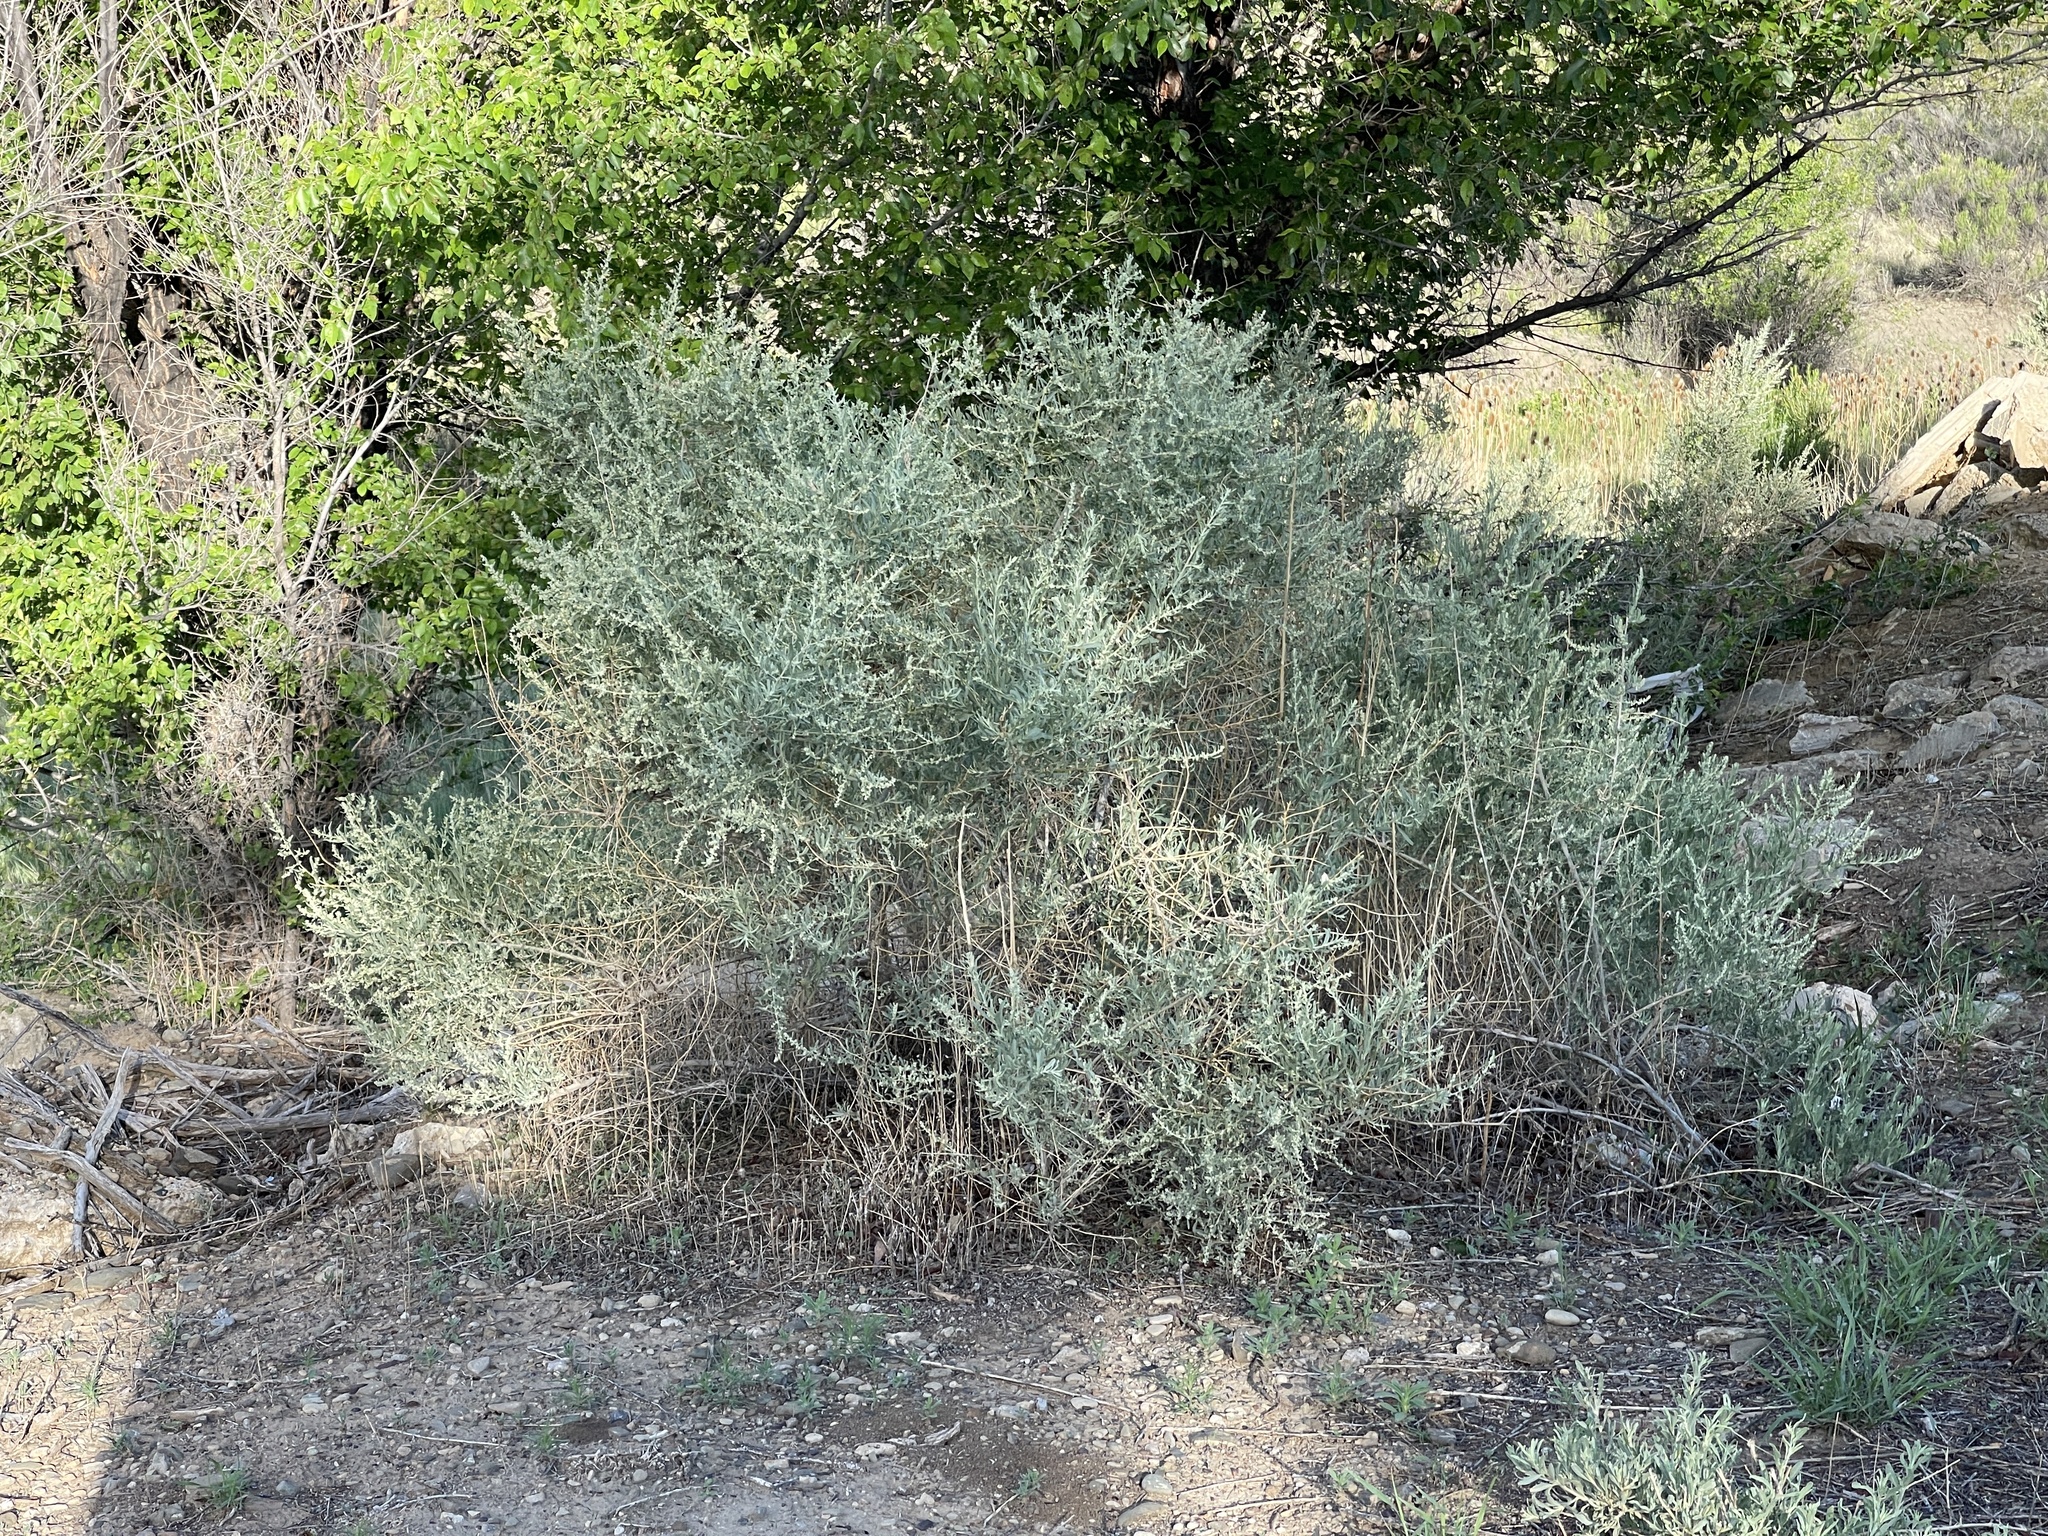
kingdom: Plantae
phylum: Tracheophyta
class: Magnoliopsida
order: Caryophyllales
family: Amaranthaceae
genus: Atriplex
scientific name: Atriplex canescens
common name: Four-wing saltbush
